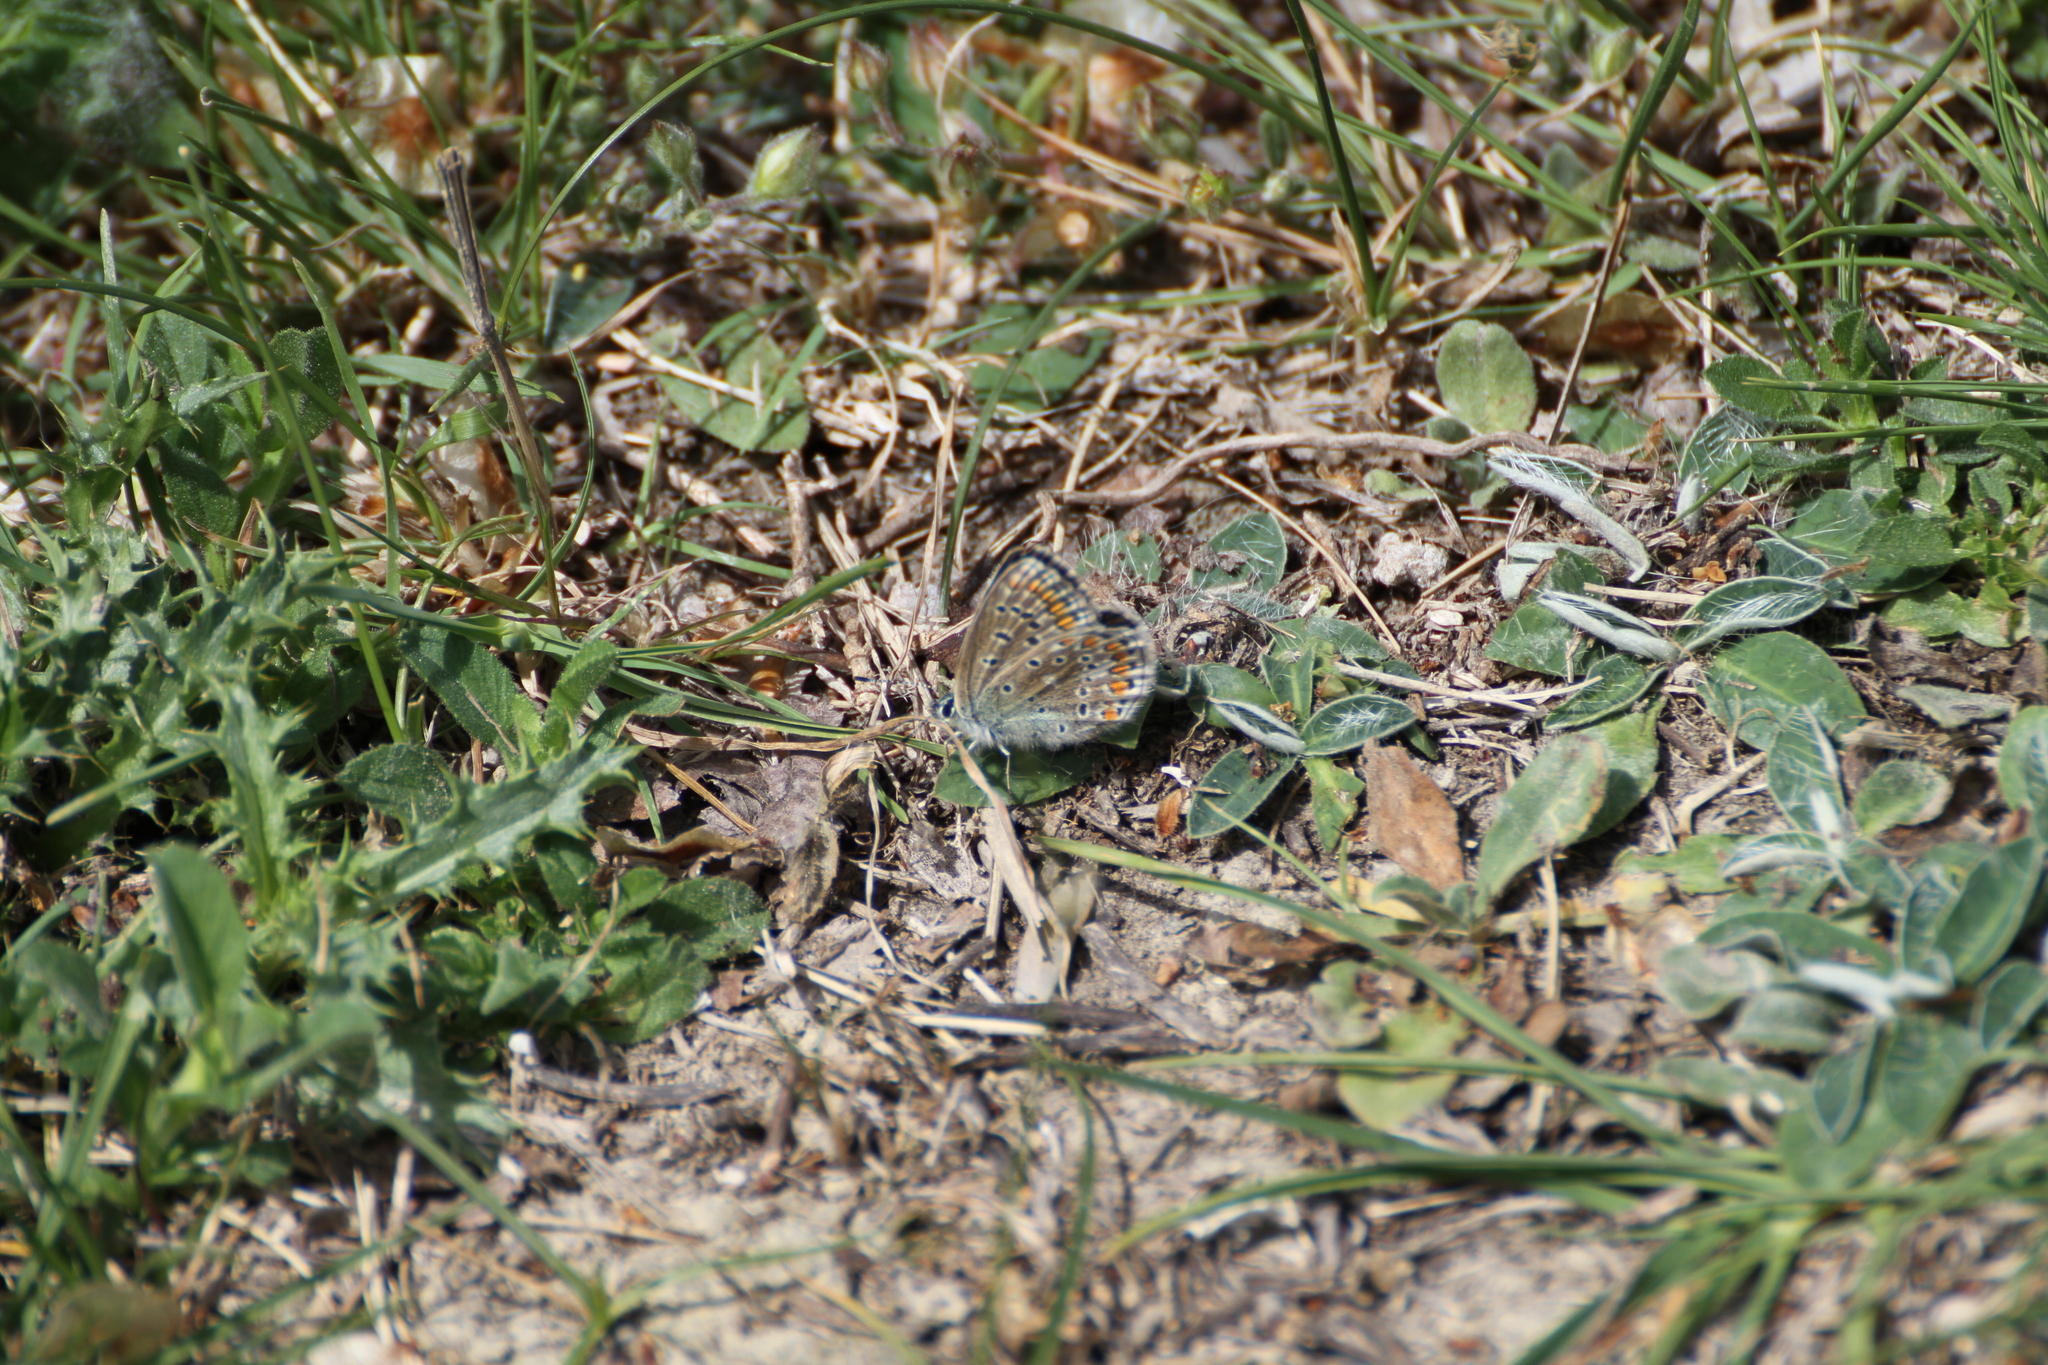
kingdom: Animalia
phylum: Arthropoda
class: Insecta
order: Lepidoptera
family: Lycaenidae
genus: Polyommatus
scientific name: Polyommatus icarus
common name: Common blue
